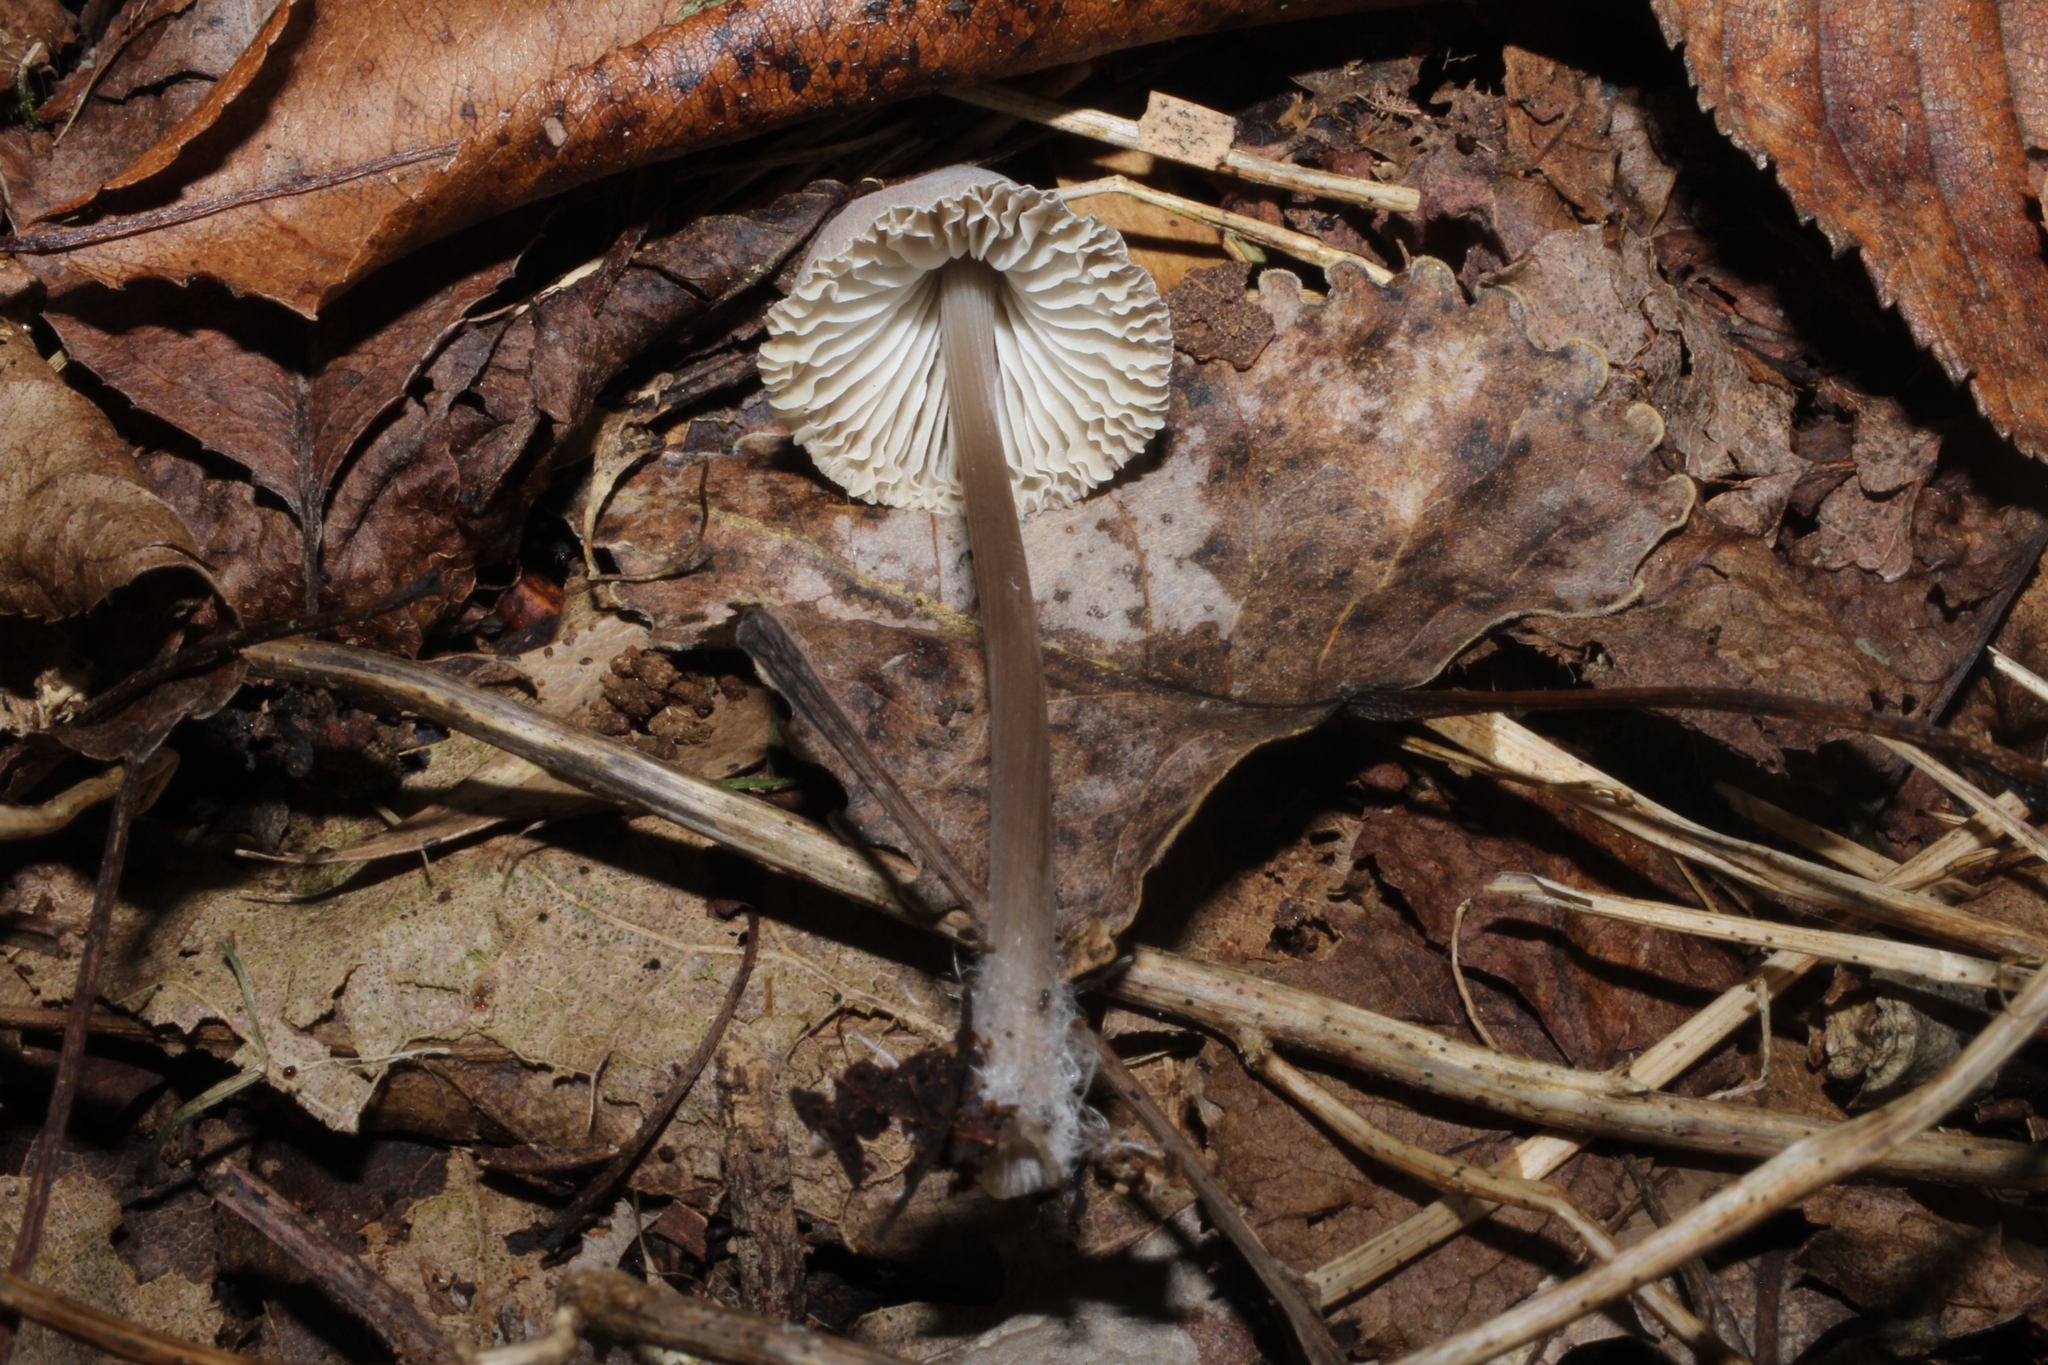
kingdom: Fungi
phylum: Basidiomycota
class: Agaricomycetes
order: Agaricales
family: Mycenaceae
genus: Mycena
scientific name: Mycena leptocephala
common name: Nitrous bonnet
